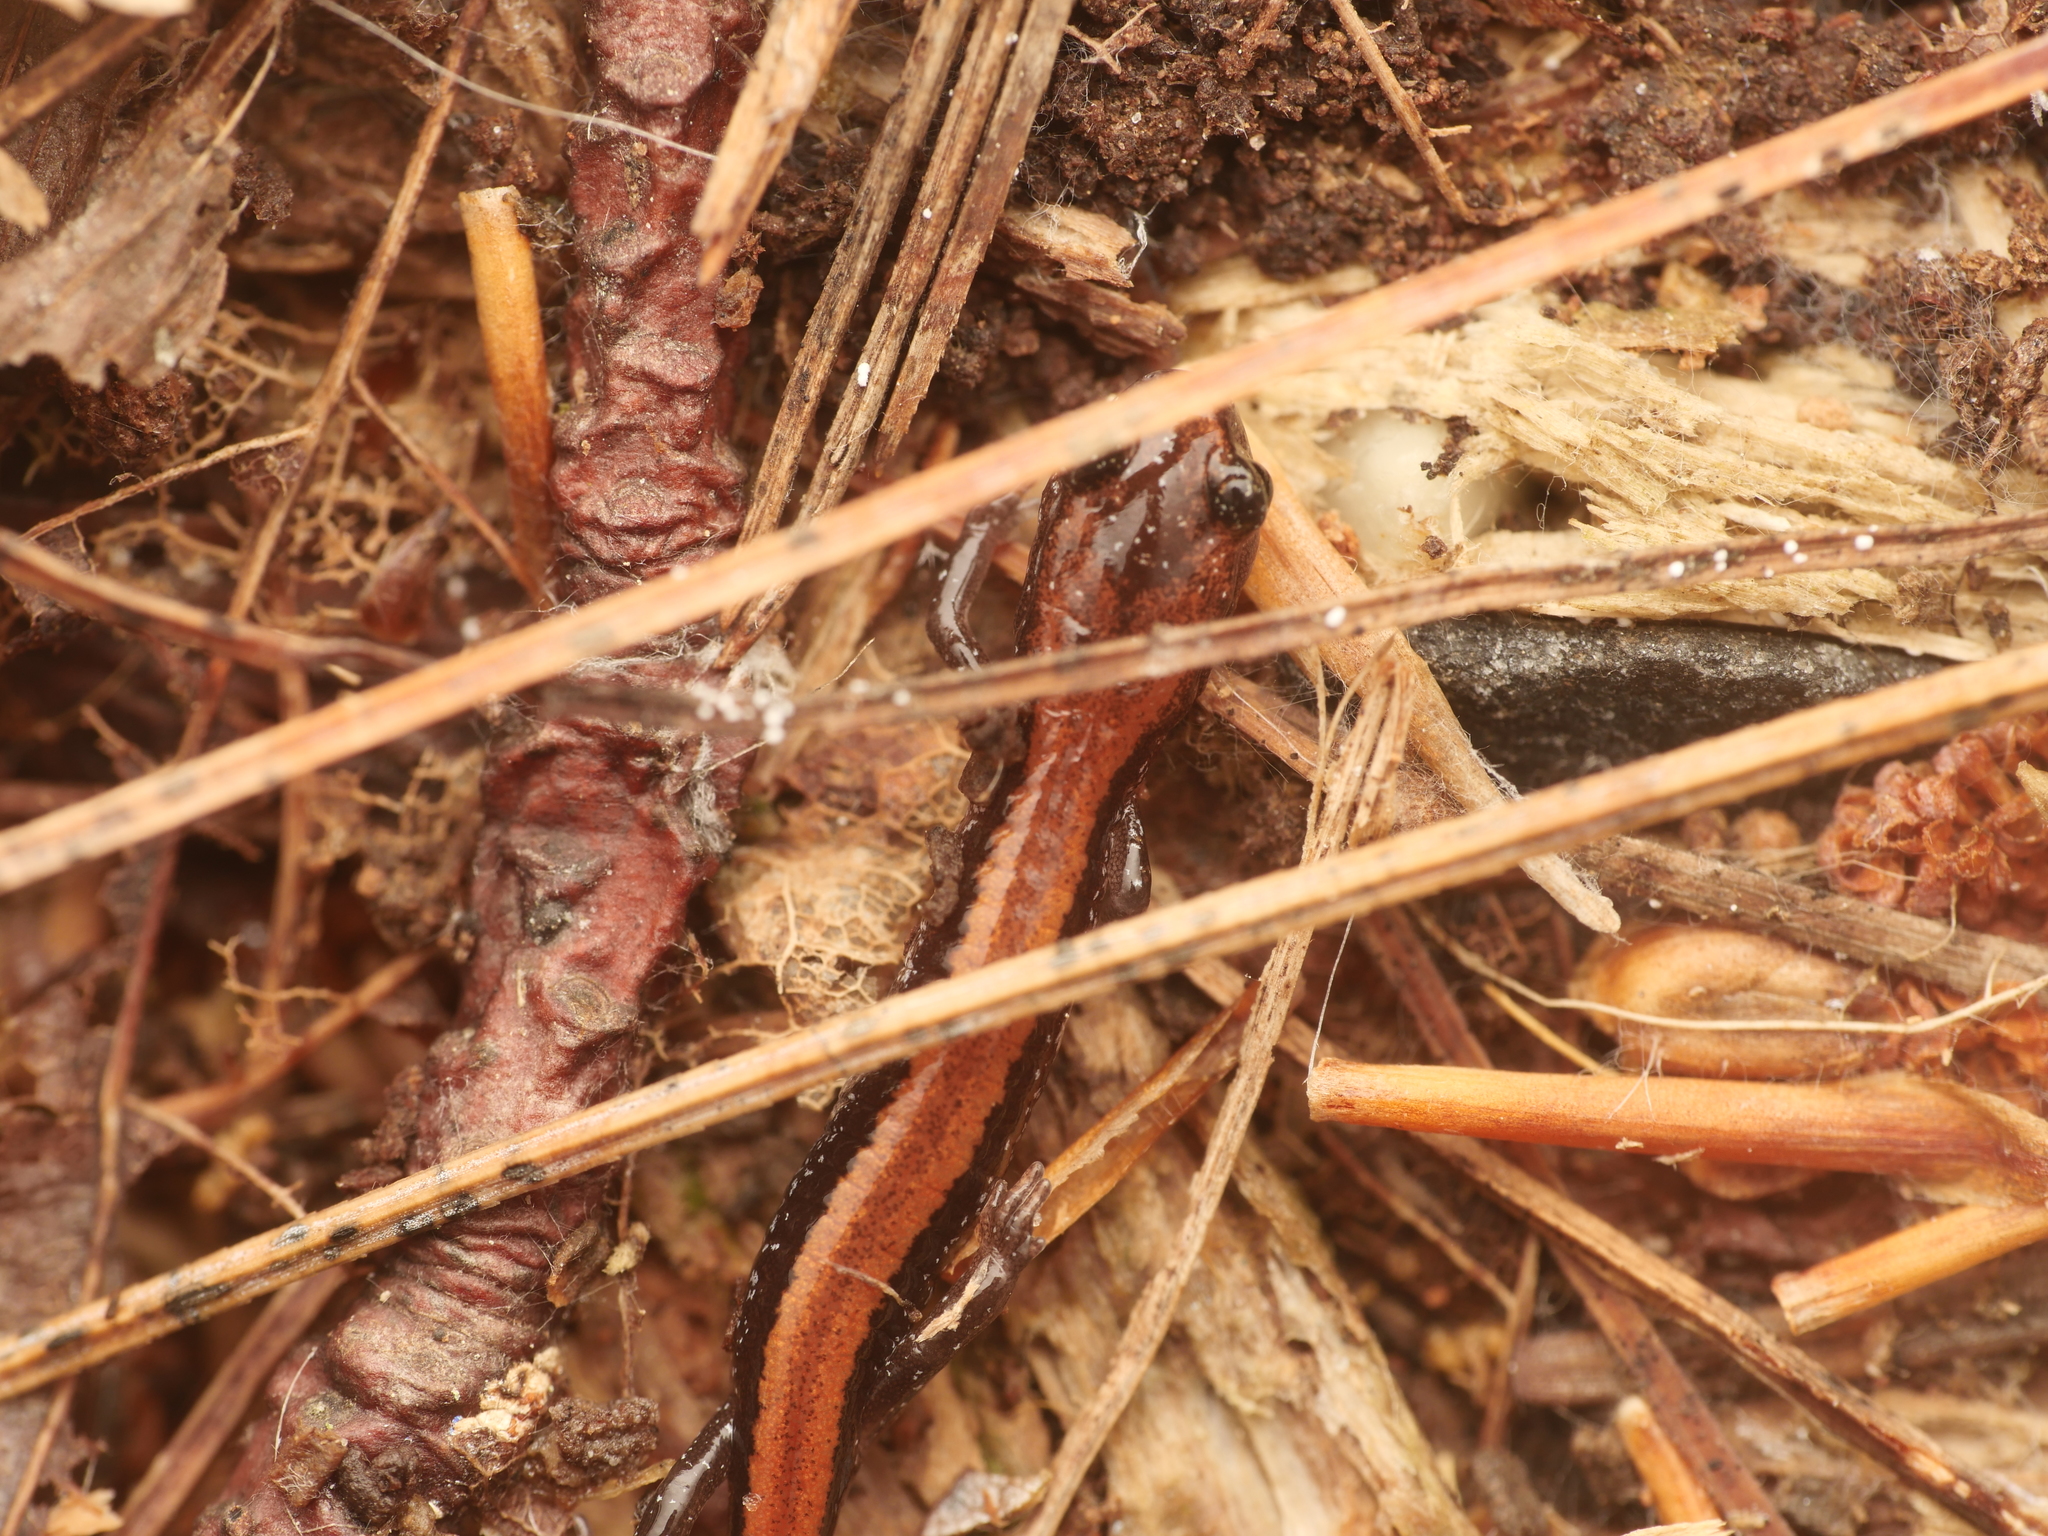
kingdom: Animalia
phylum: Chordata
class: Amphibia
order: Caudata
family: Plethodontidae
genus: Plethodon
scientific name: Plethodon cinereus
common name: Redback salamander
